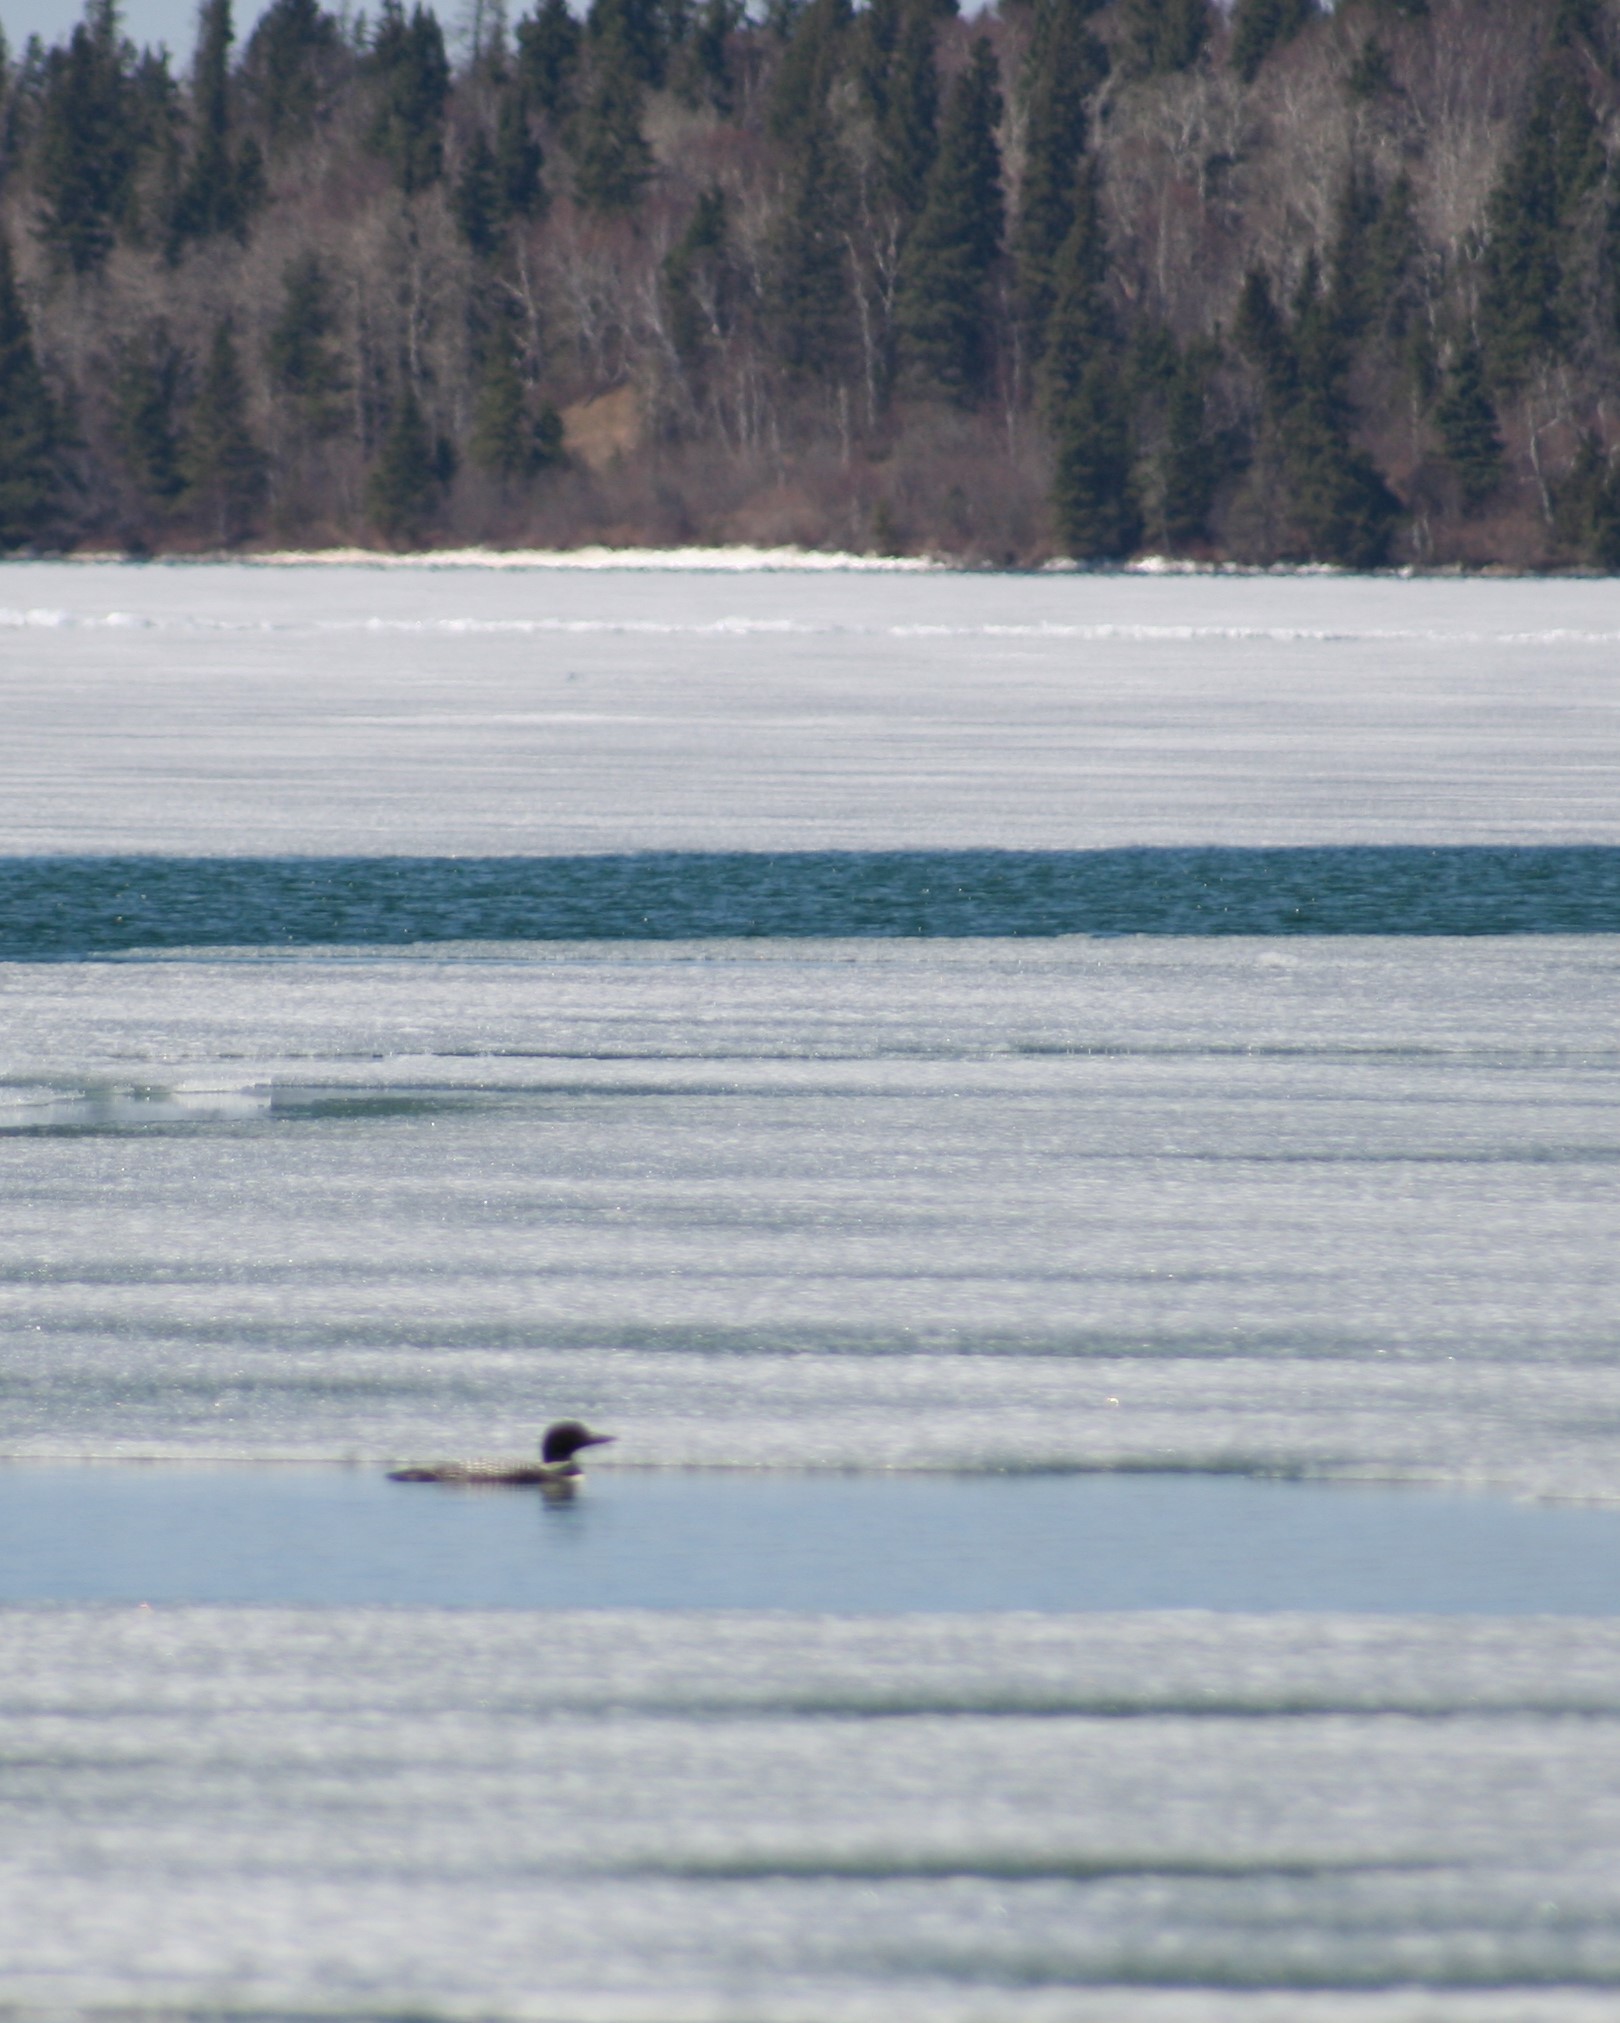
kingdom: Animalia
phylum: Chordata
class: Aves
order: Gaviiformes
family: Gaviidae
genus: Gavia
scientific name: Gavia immer
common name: Common loon
